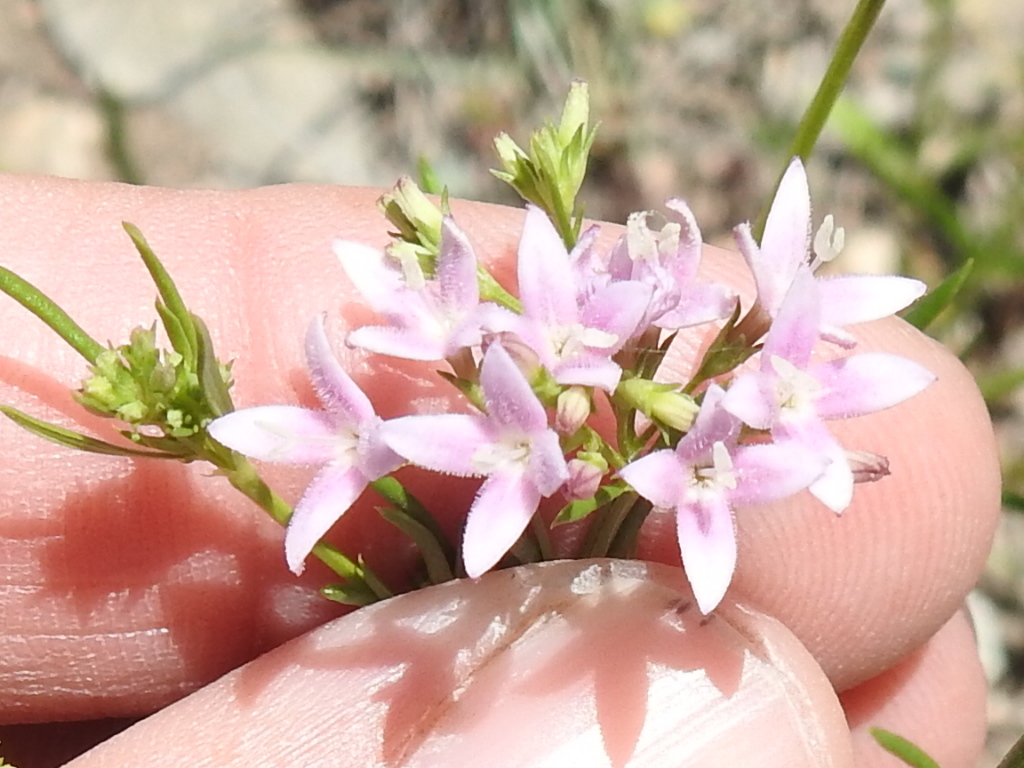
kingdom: Plantae
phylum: Tracheophyta
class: Magnoliopsida
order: Gentianales
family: Rubiaceae
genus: Stenaria
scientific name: Stenaria nigricans
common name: Diamondflowers
